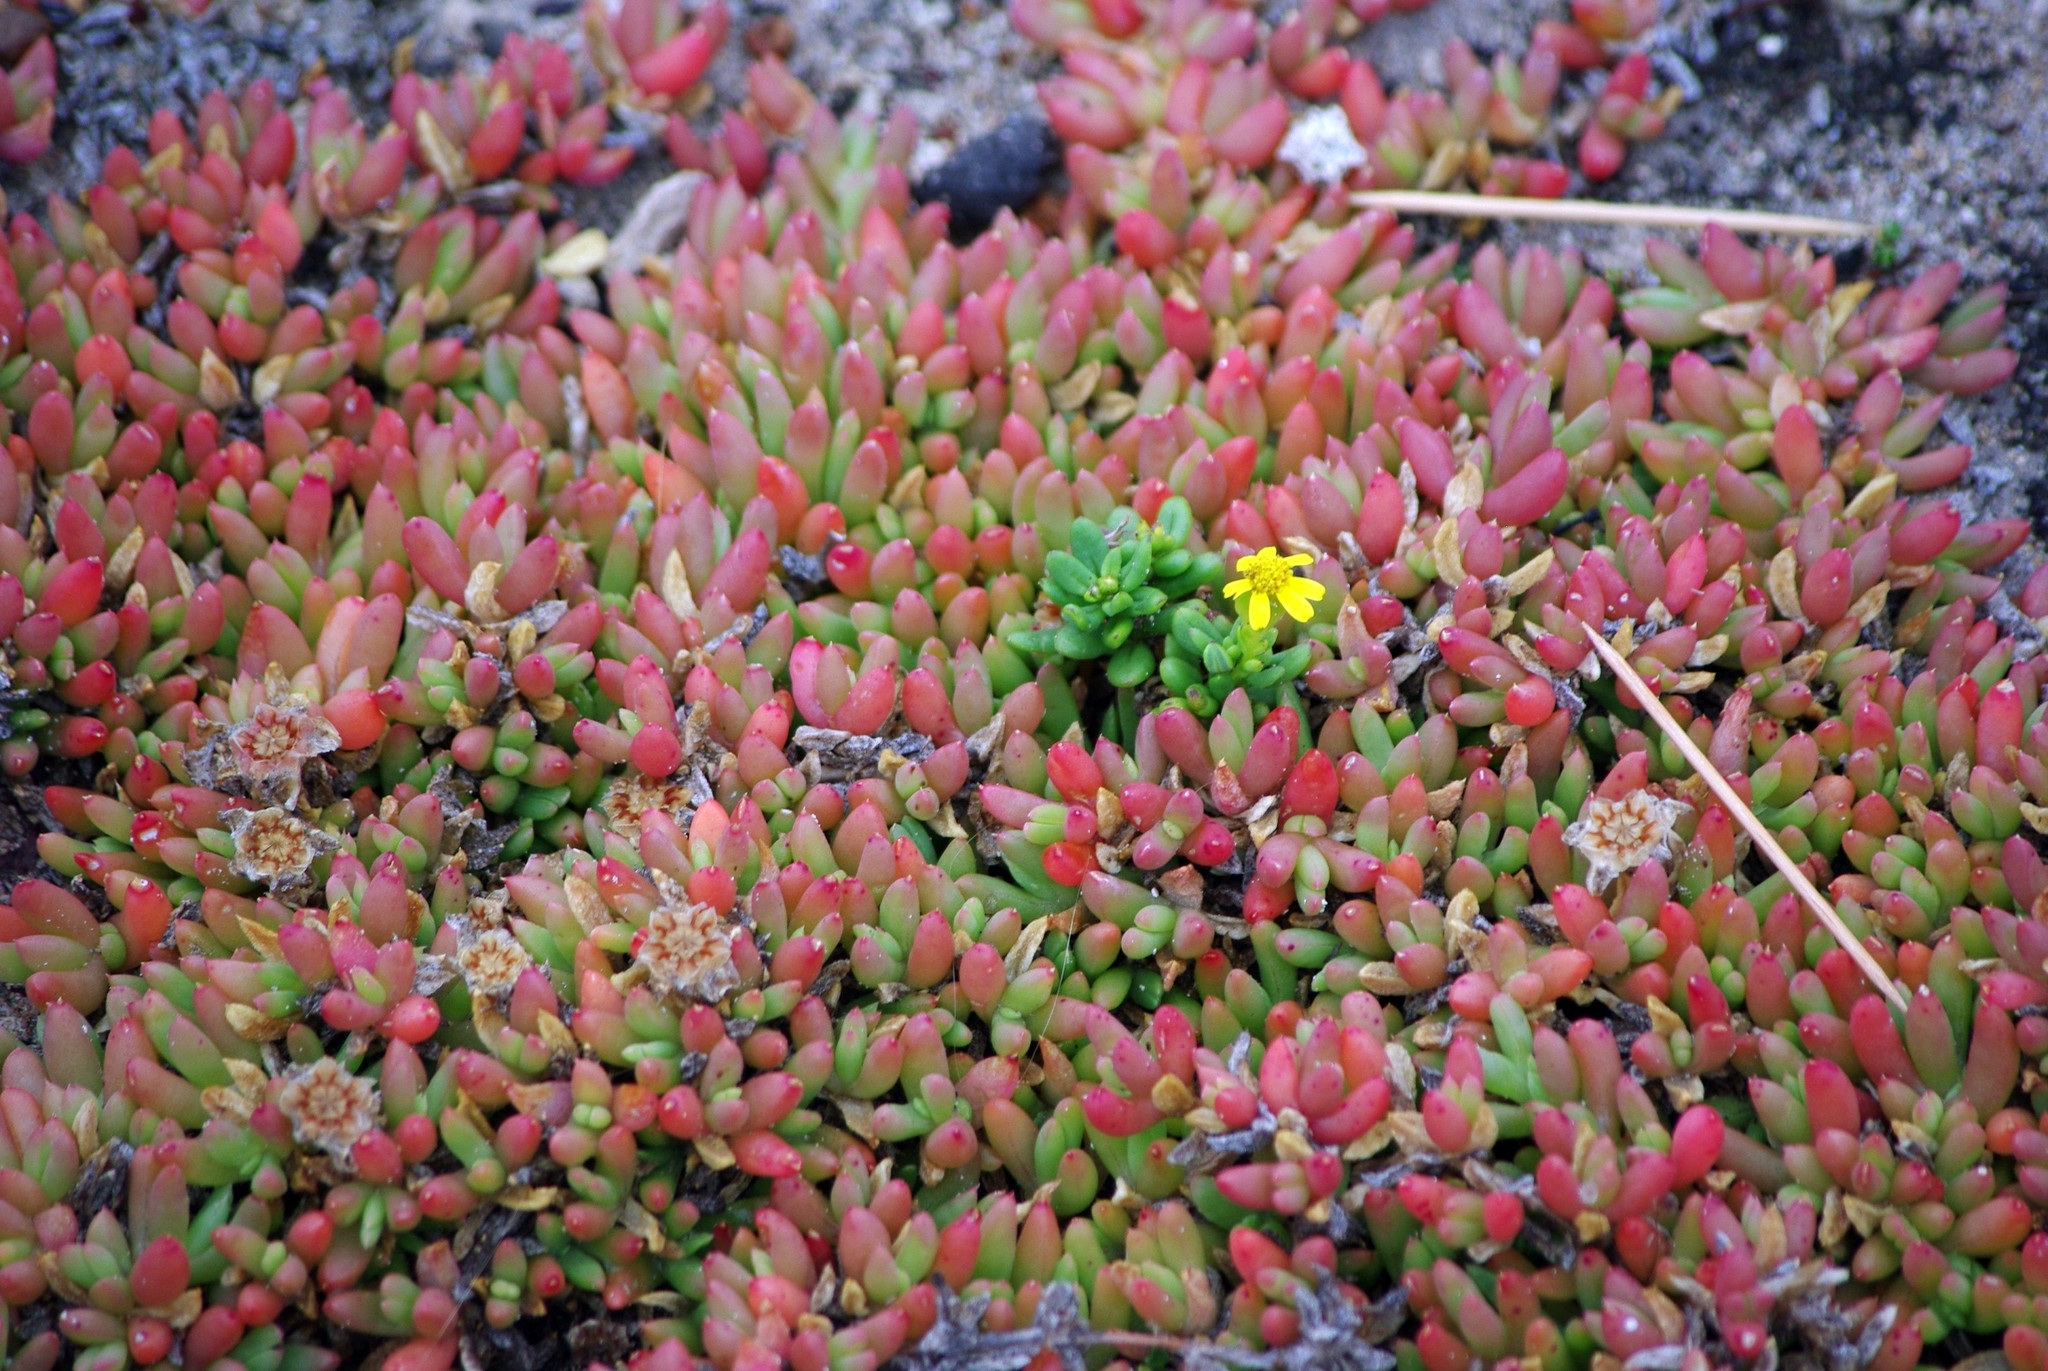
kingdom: Plantae
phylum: Tracheophyta
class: Magnoliopsida
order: Caryophyllales
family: Aizoaceae
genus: Disphyma
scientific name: Disphyma clavellatum
